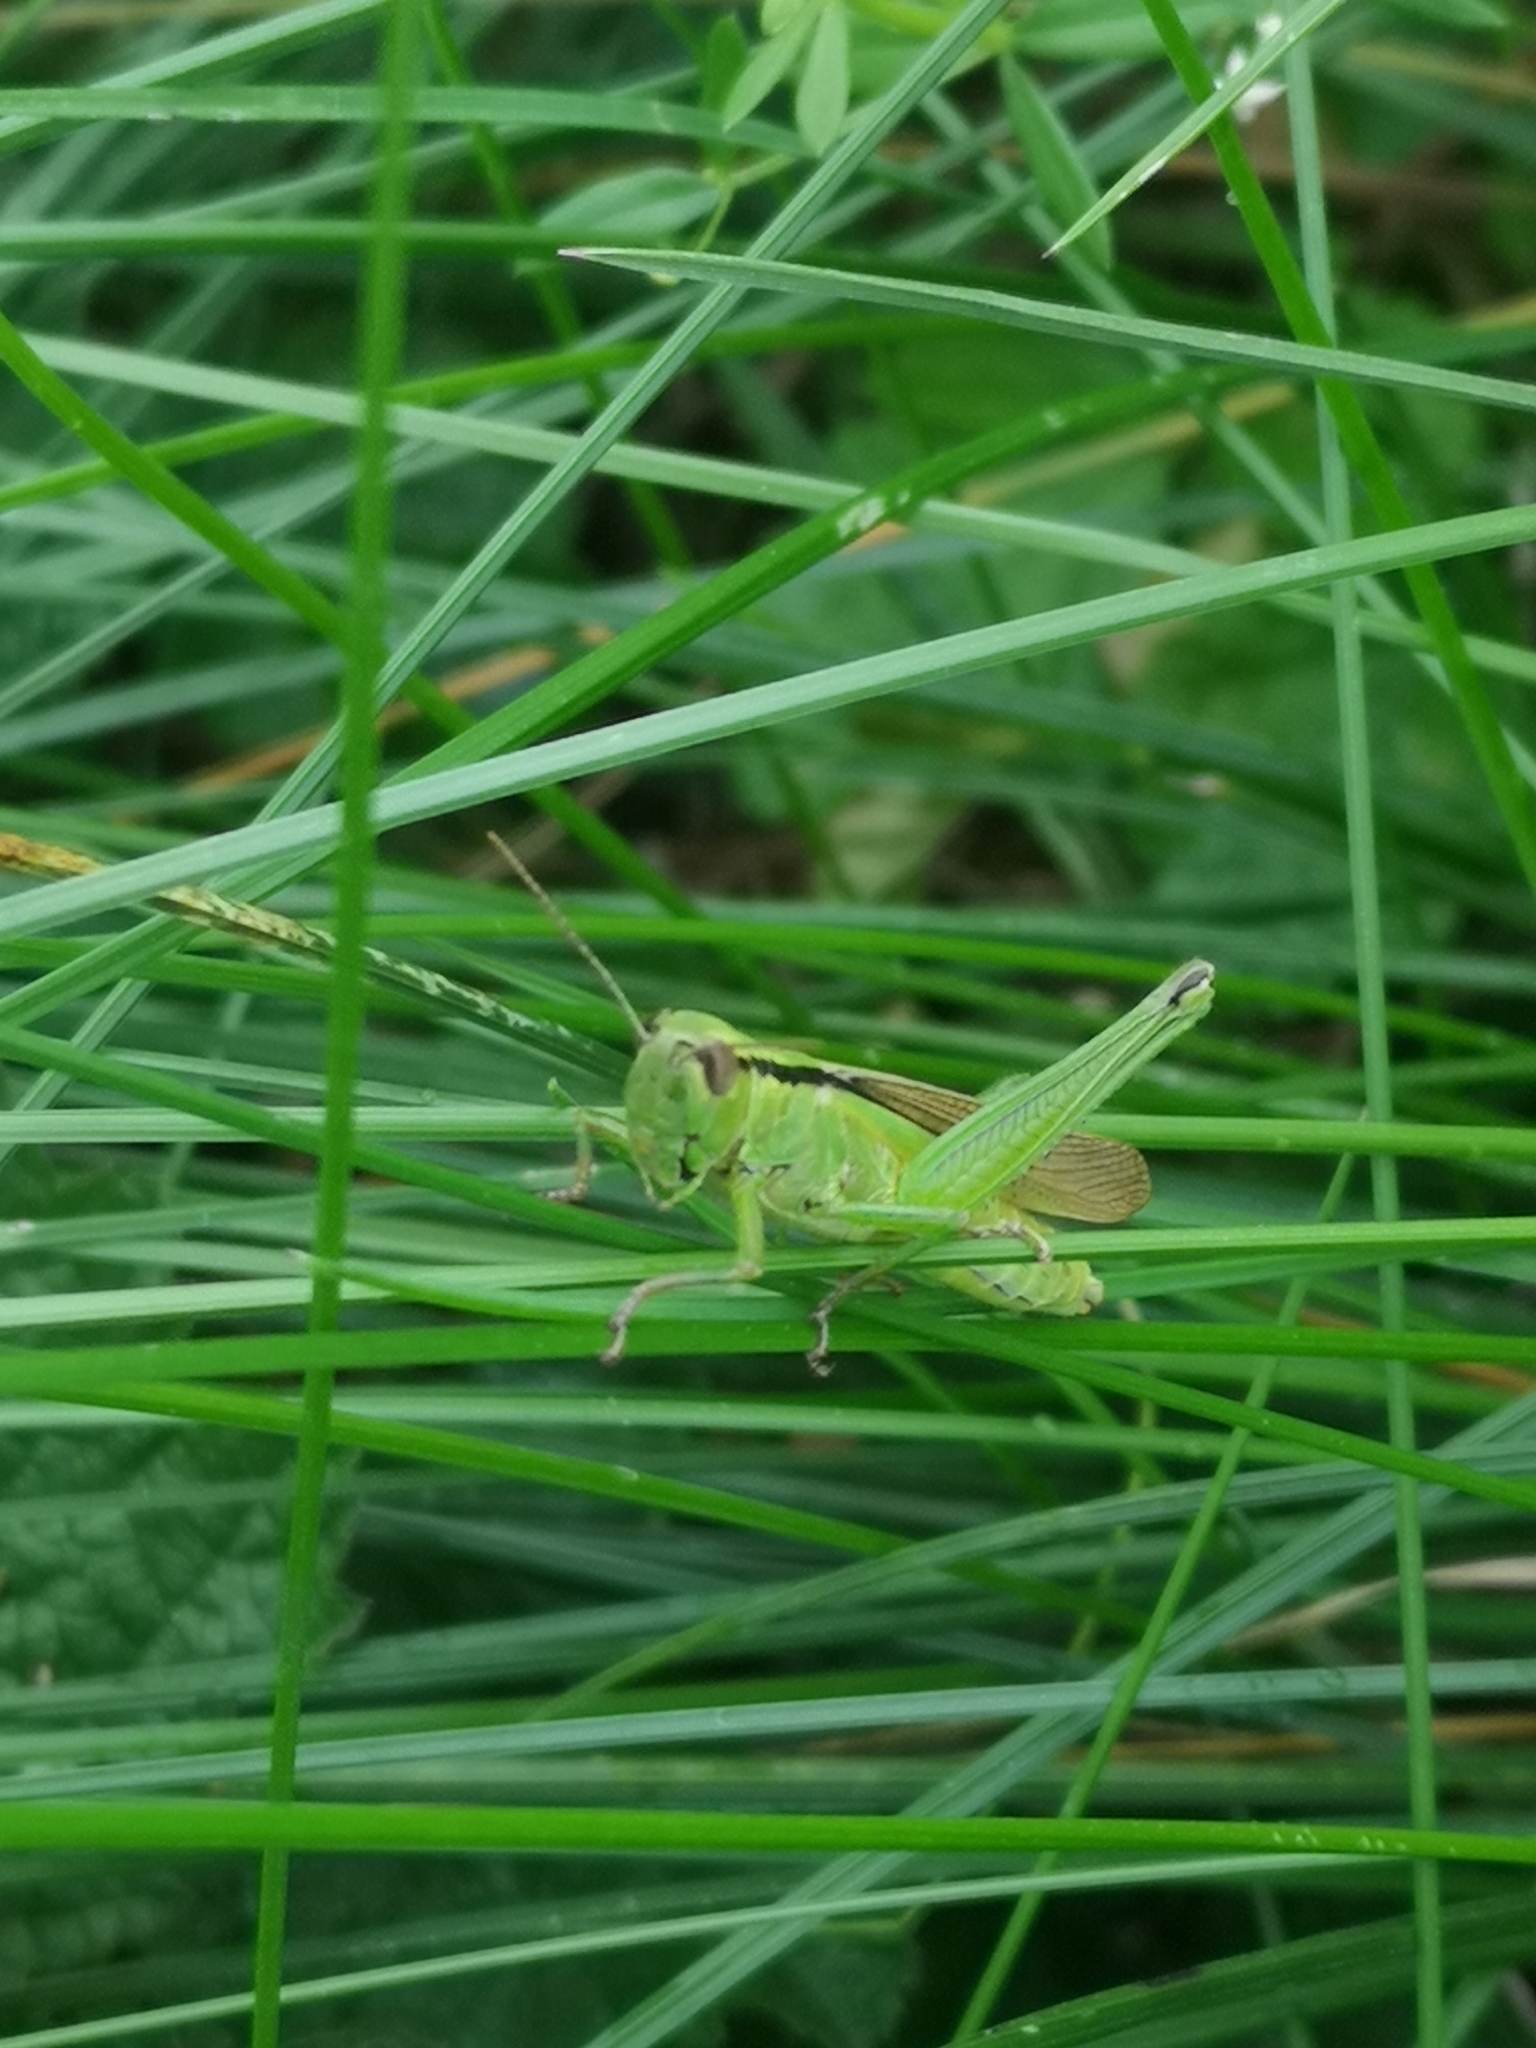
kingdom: Animalia
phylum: Arthropoda
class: Insecta
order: Orthoptera
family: Acrididae
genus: Mecostethus
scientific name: Mecostethus parapleurus
